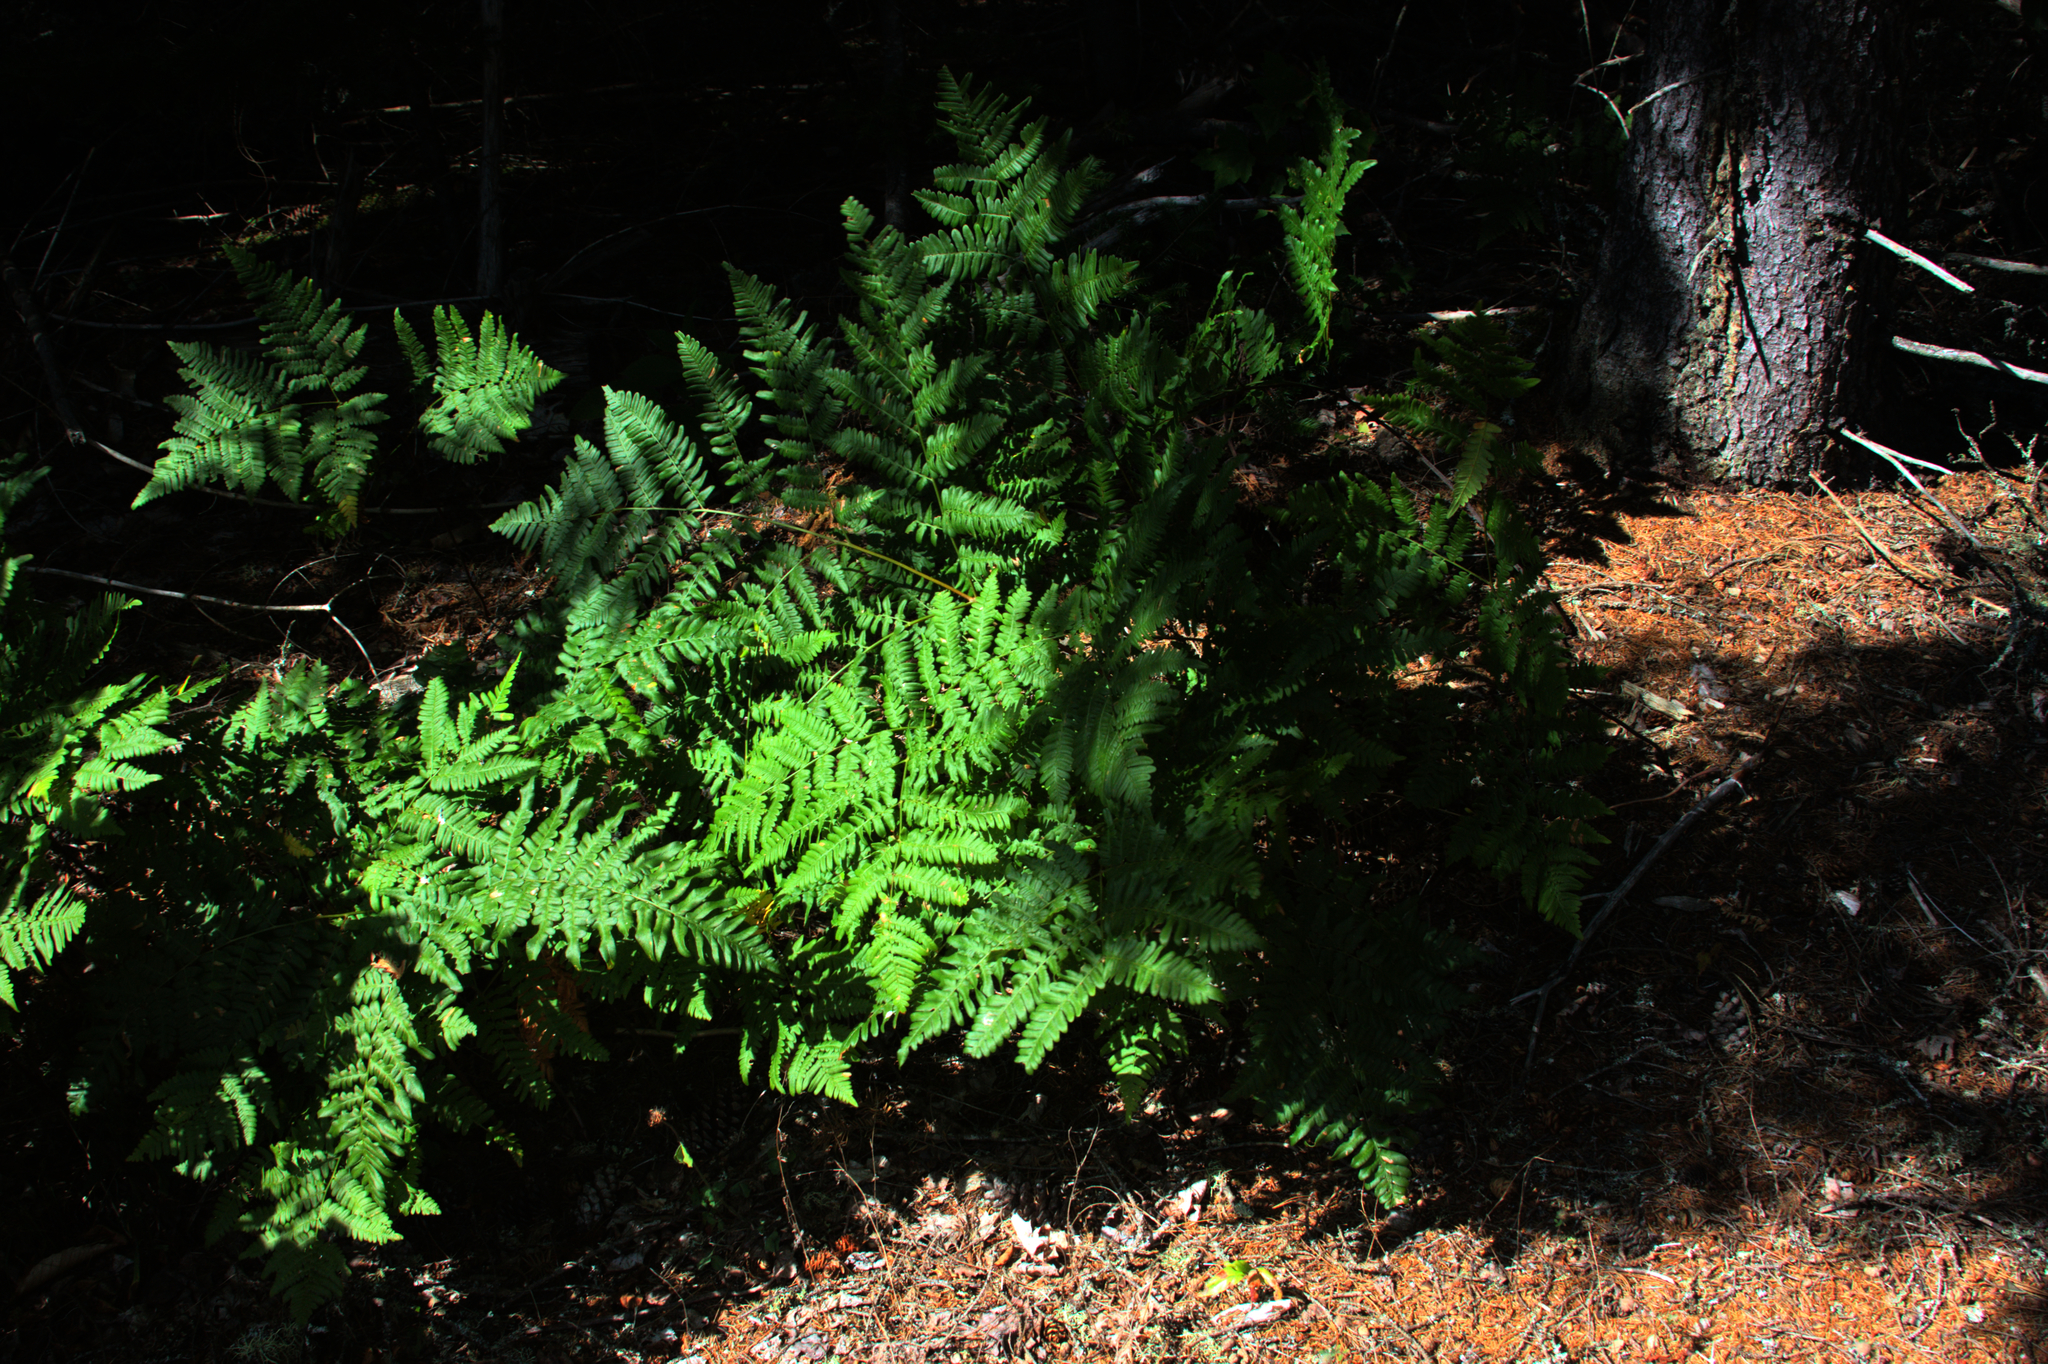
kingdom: Plantae
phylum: Tracheophyta
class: Polypodiopsida
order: Polypodiales
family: Dennstaedtiaceae
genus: Pteridium
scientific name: Pteridium aquilinum
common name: Bracken
